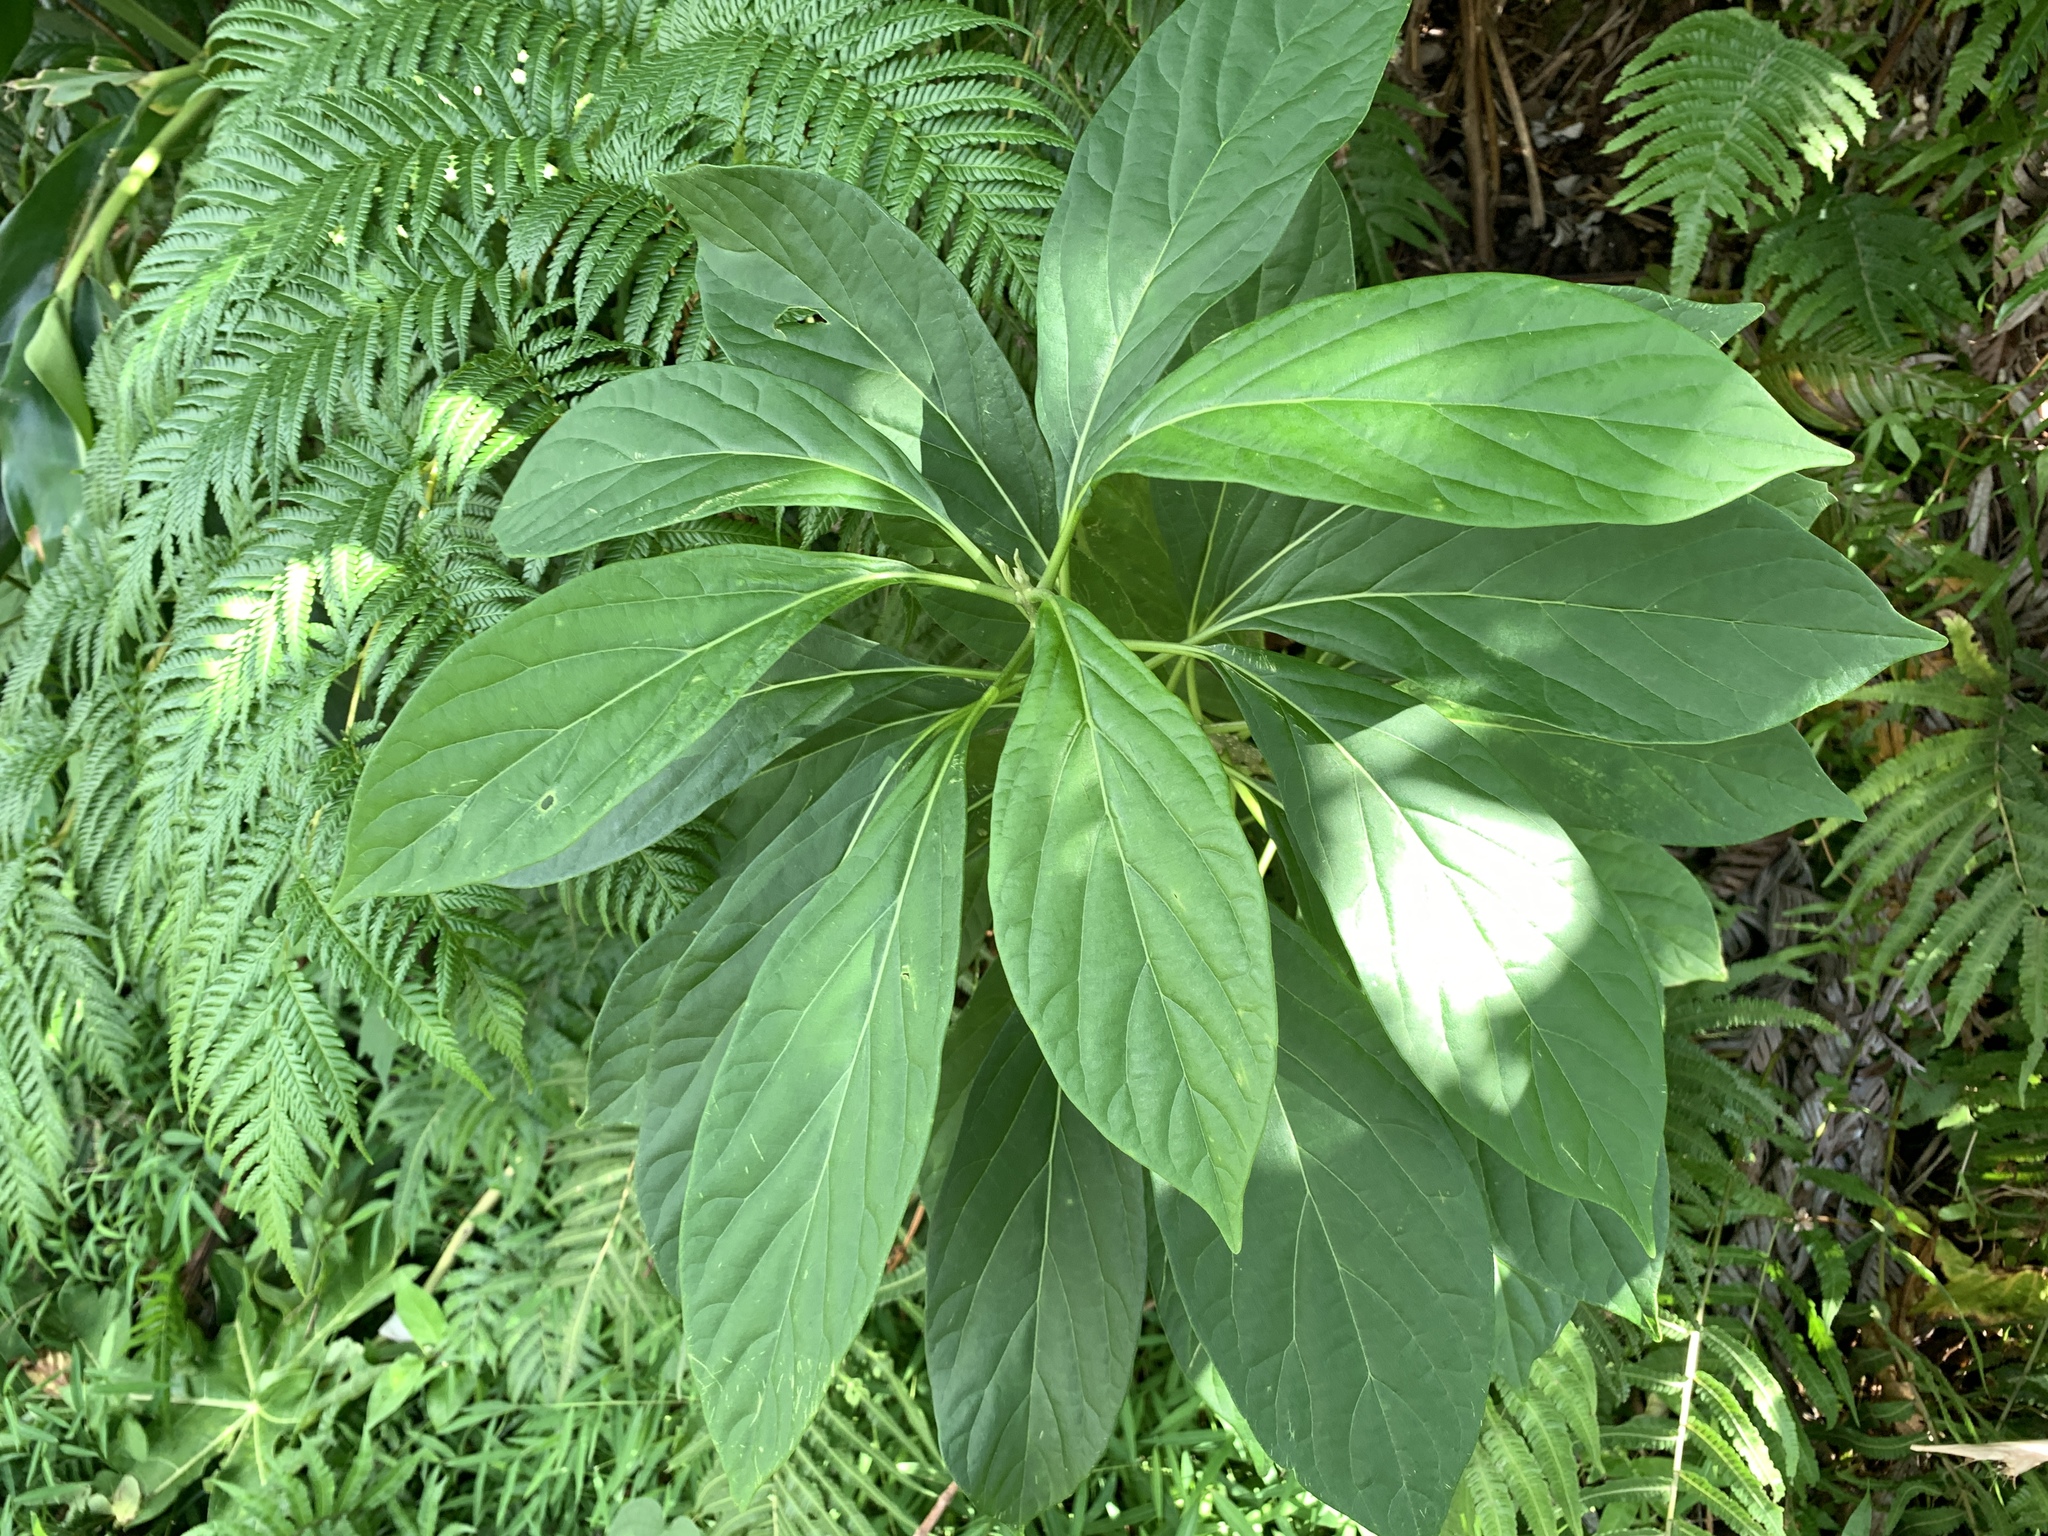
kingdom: Plantae
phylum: Tracheophyta
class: Magnoliopsida
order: Icacinales
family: Icacinaceae
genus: Nothapodytes
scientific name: Nothapodytes nimmoniana
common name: Nothapodytes
